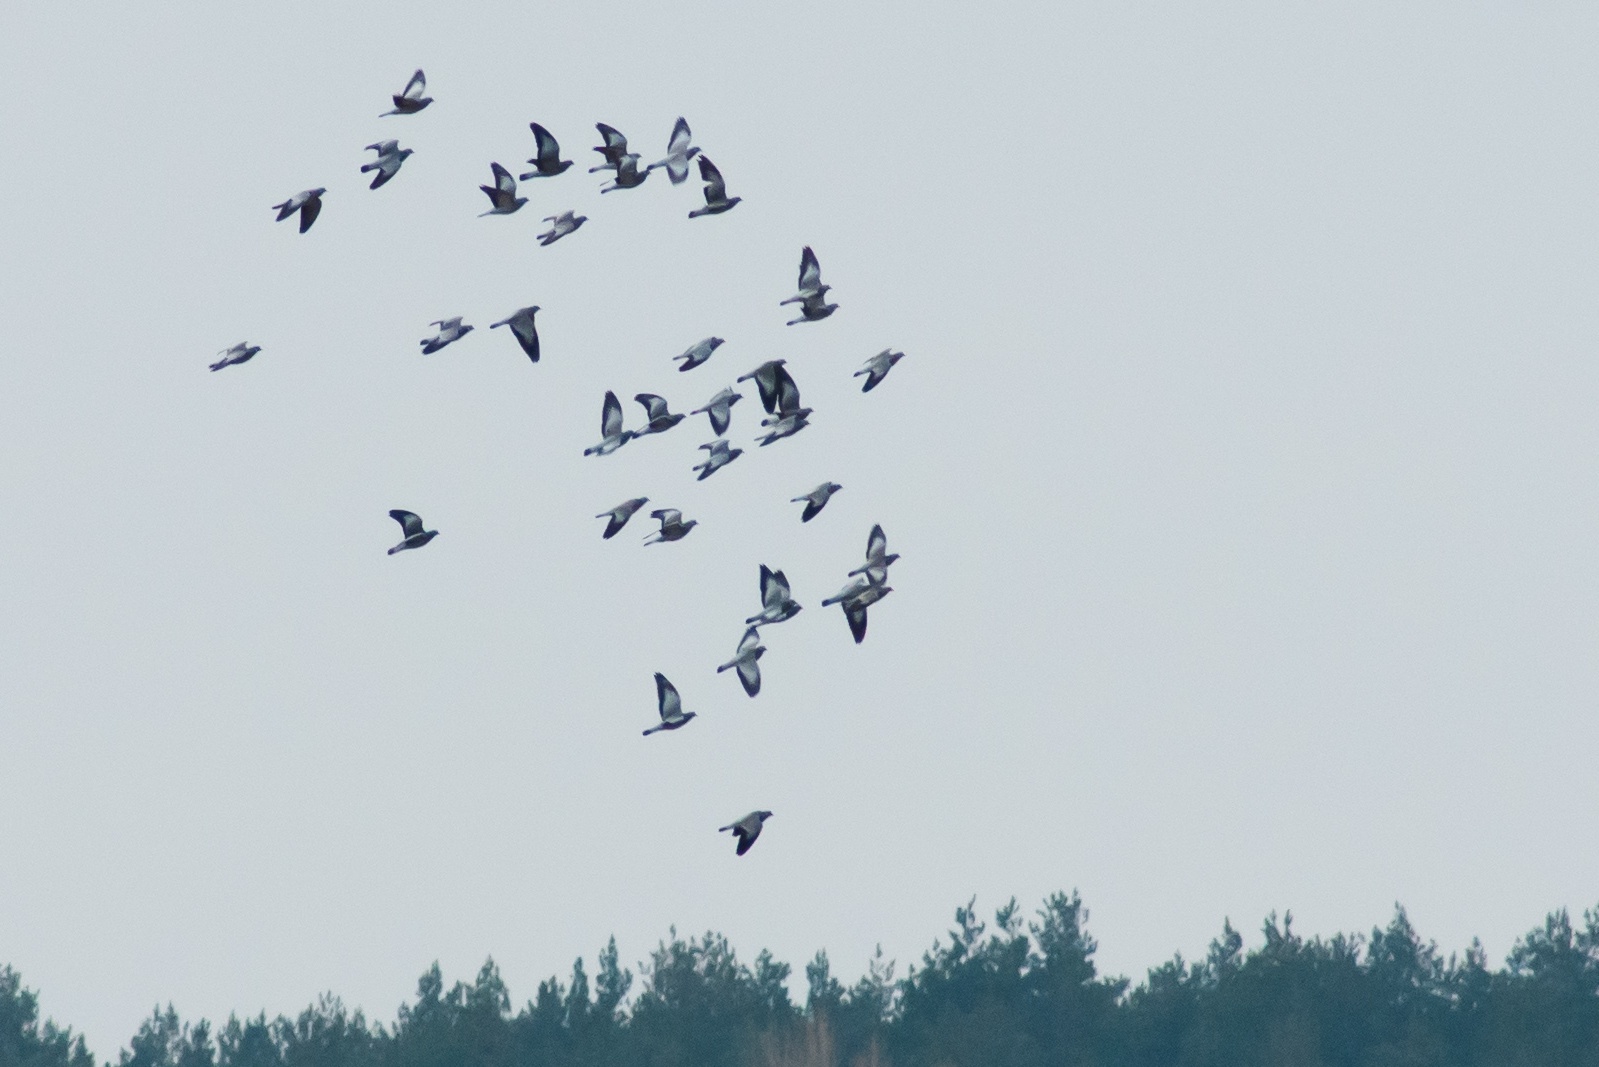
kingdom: Animalia
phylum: Chordata
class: Aves
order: Columbiformes
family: Columbidae
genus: Columba
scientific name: Columba oenas
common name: Stock dove
